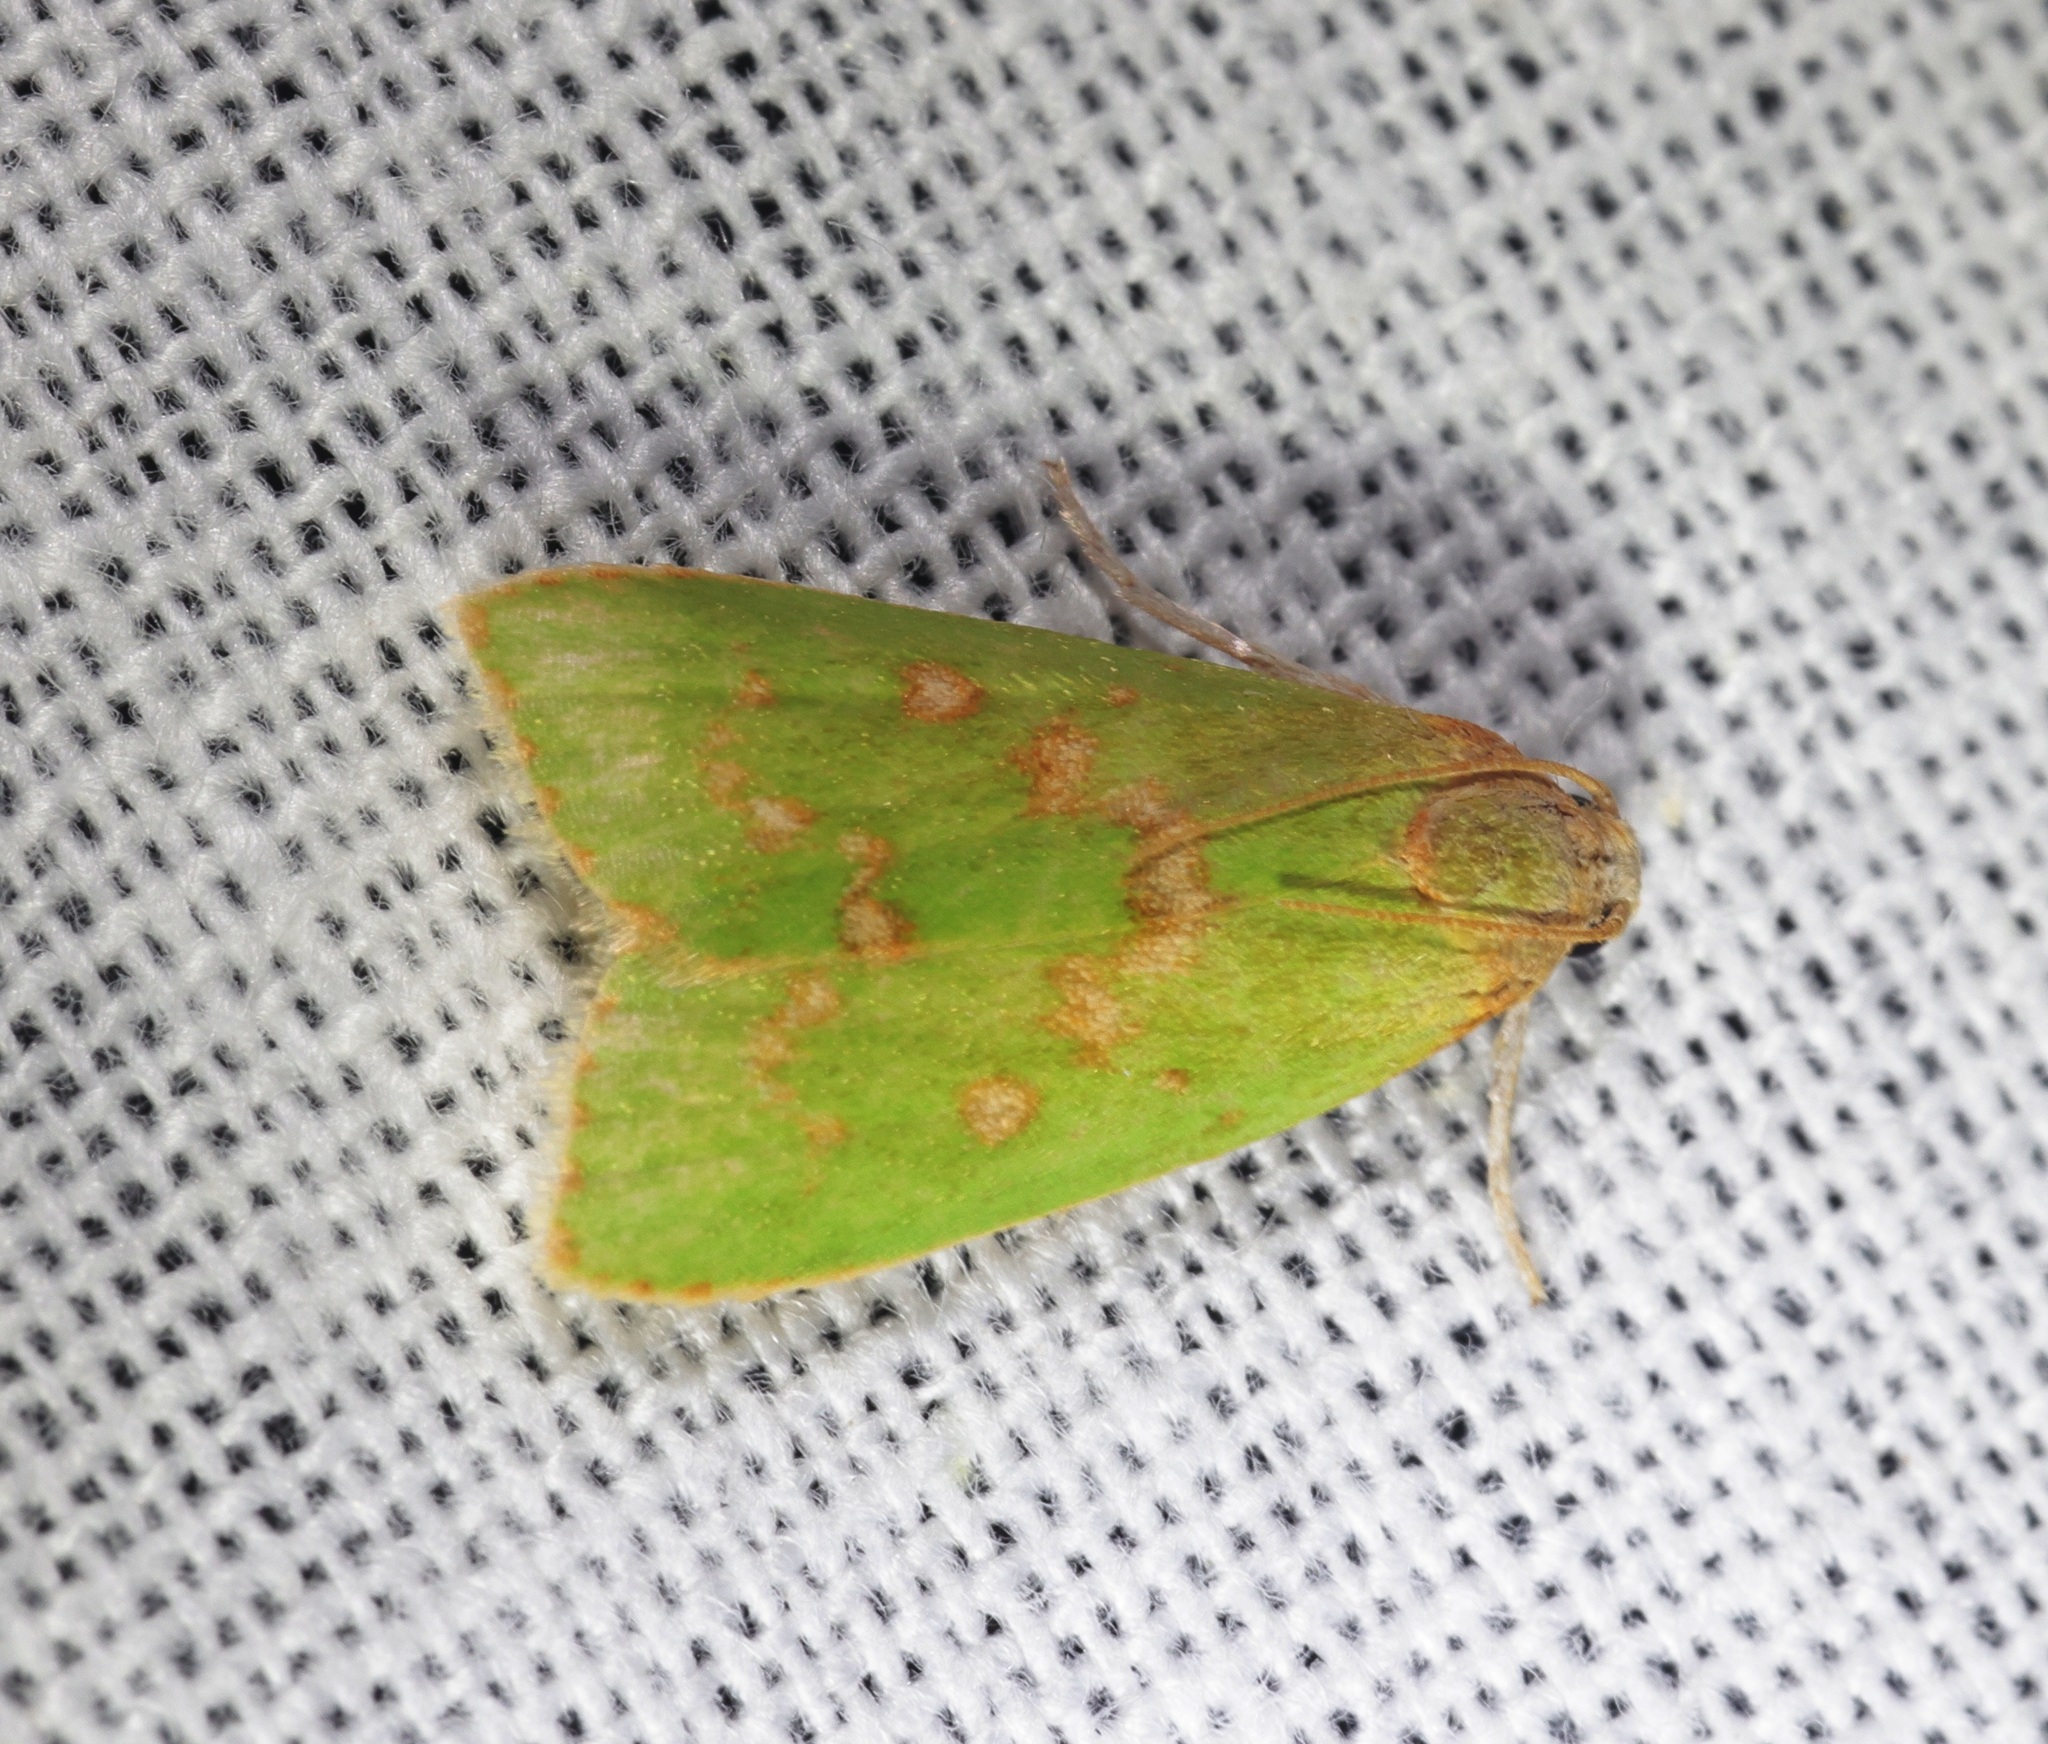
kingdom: Animalia
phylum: Arthropoda
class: Insecta
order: Lepidoptera
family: Pyralidae
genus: Doloessa
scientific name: Doloessa viridis
